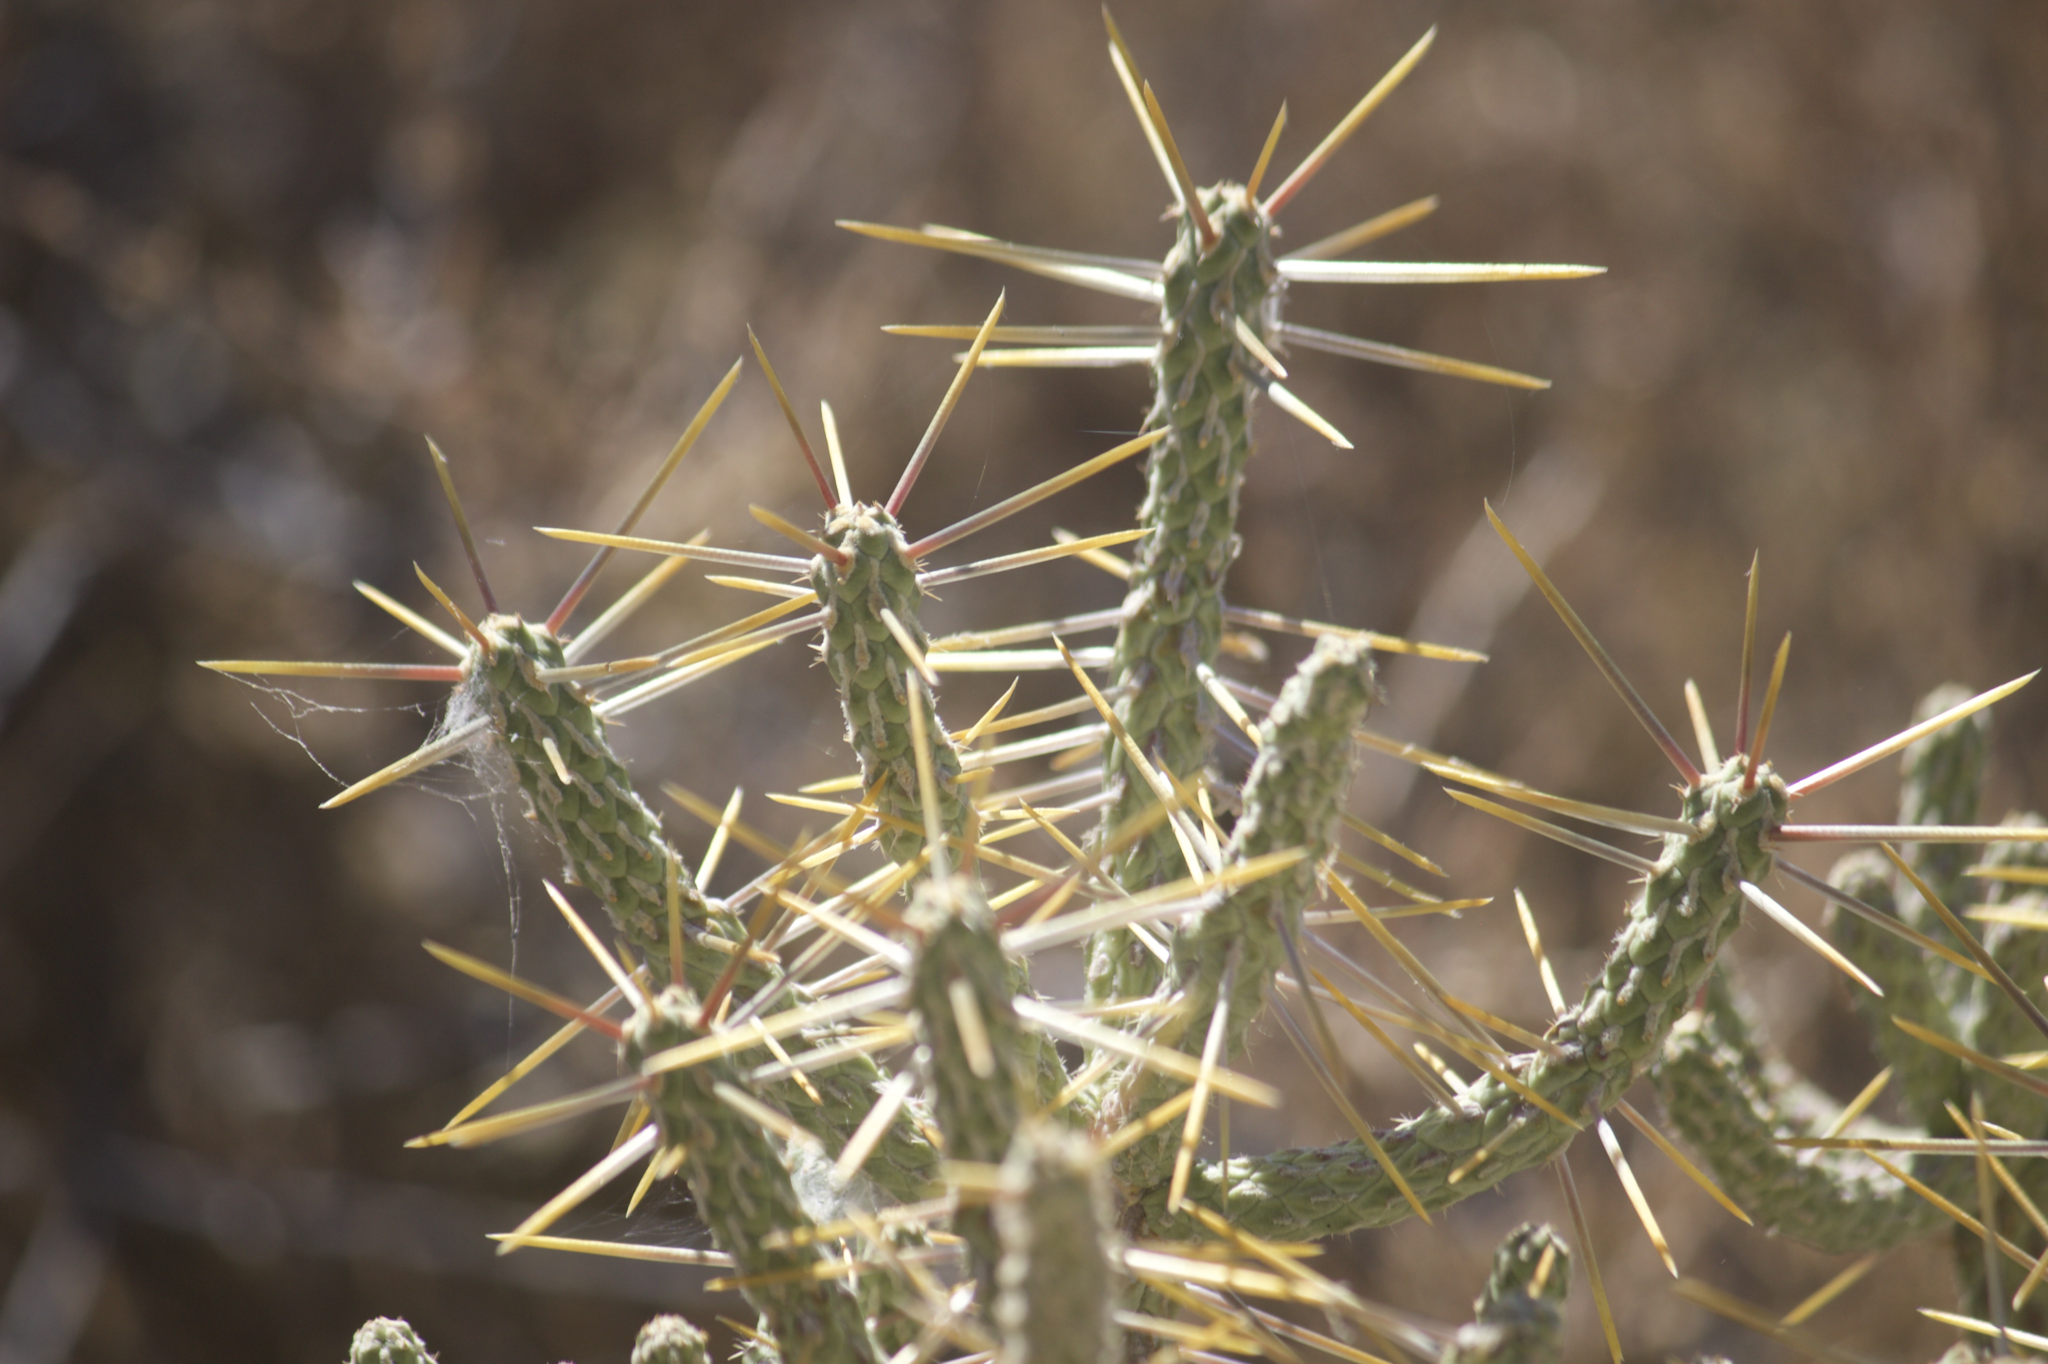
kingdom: Plantae
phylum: Tracheophyta
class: Magnoliopsida
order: Caryophyllales
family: Cactaceae
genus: Cylindropuntia
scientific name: Cylindropuntia ramosissima
